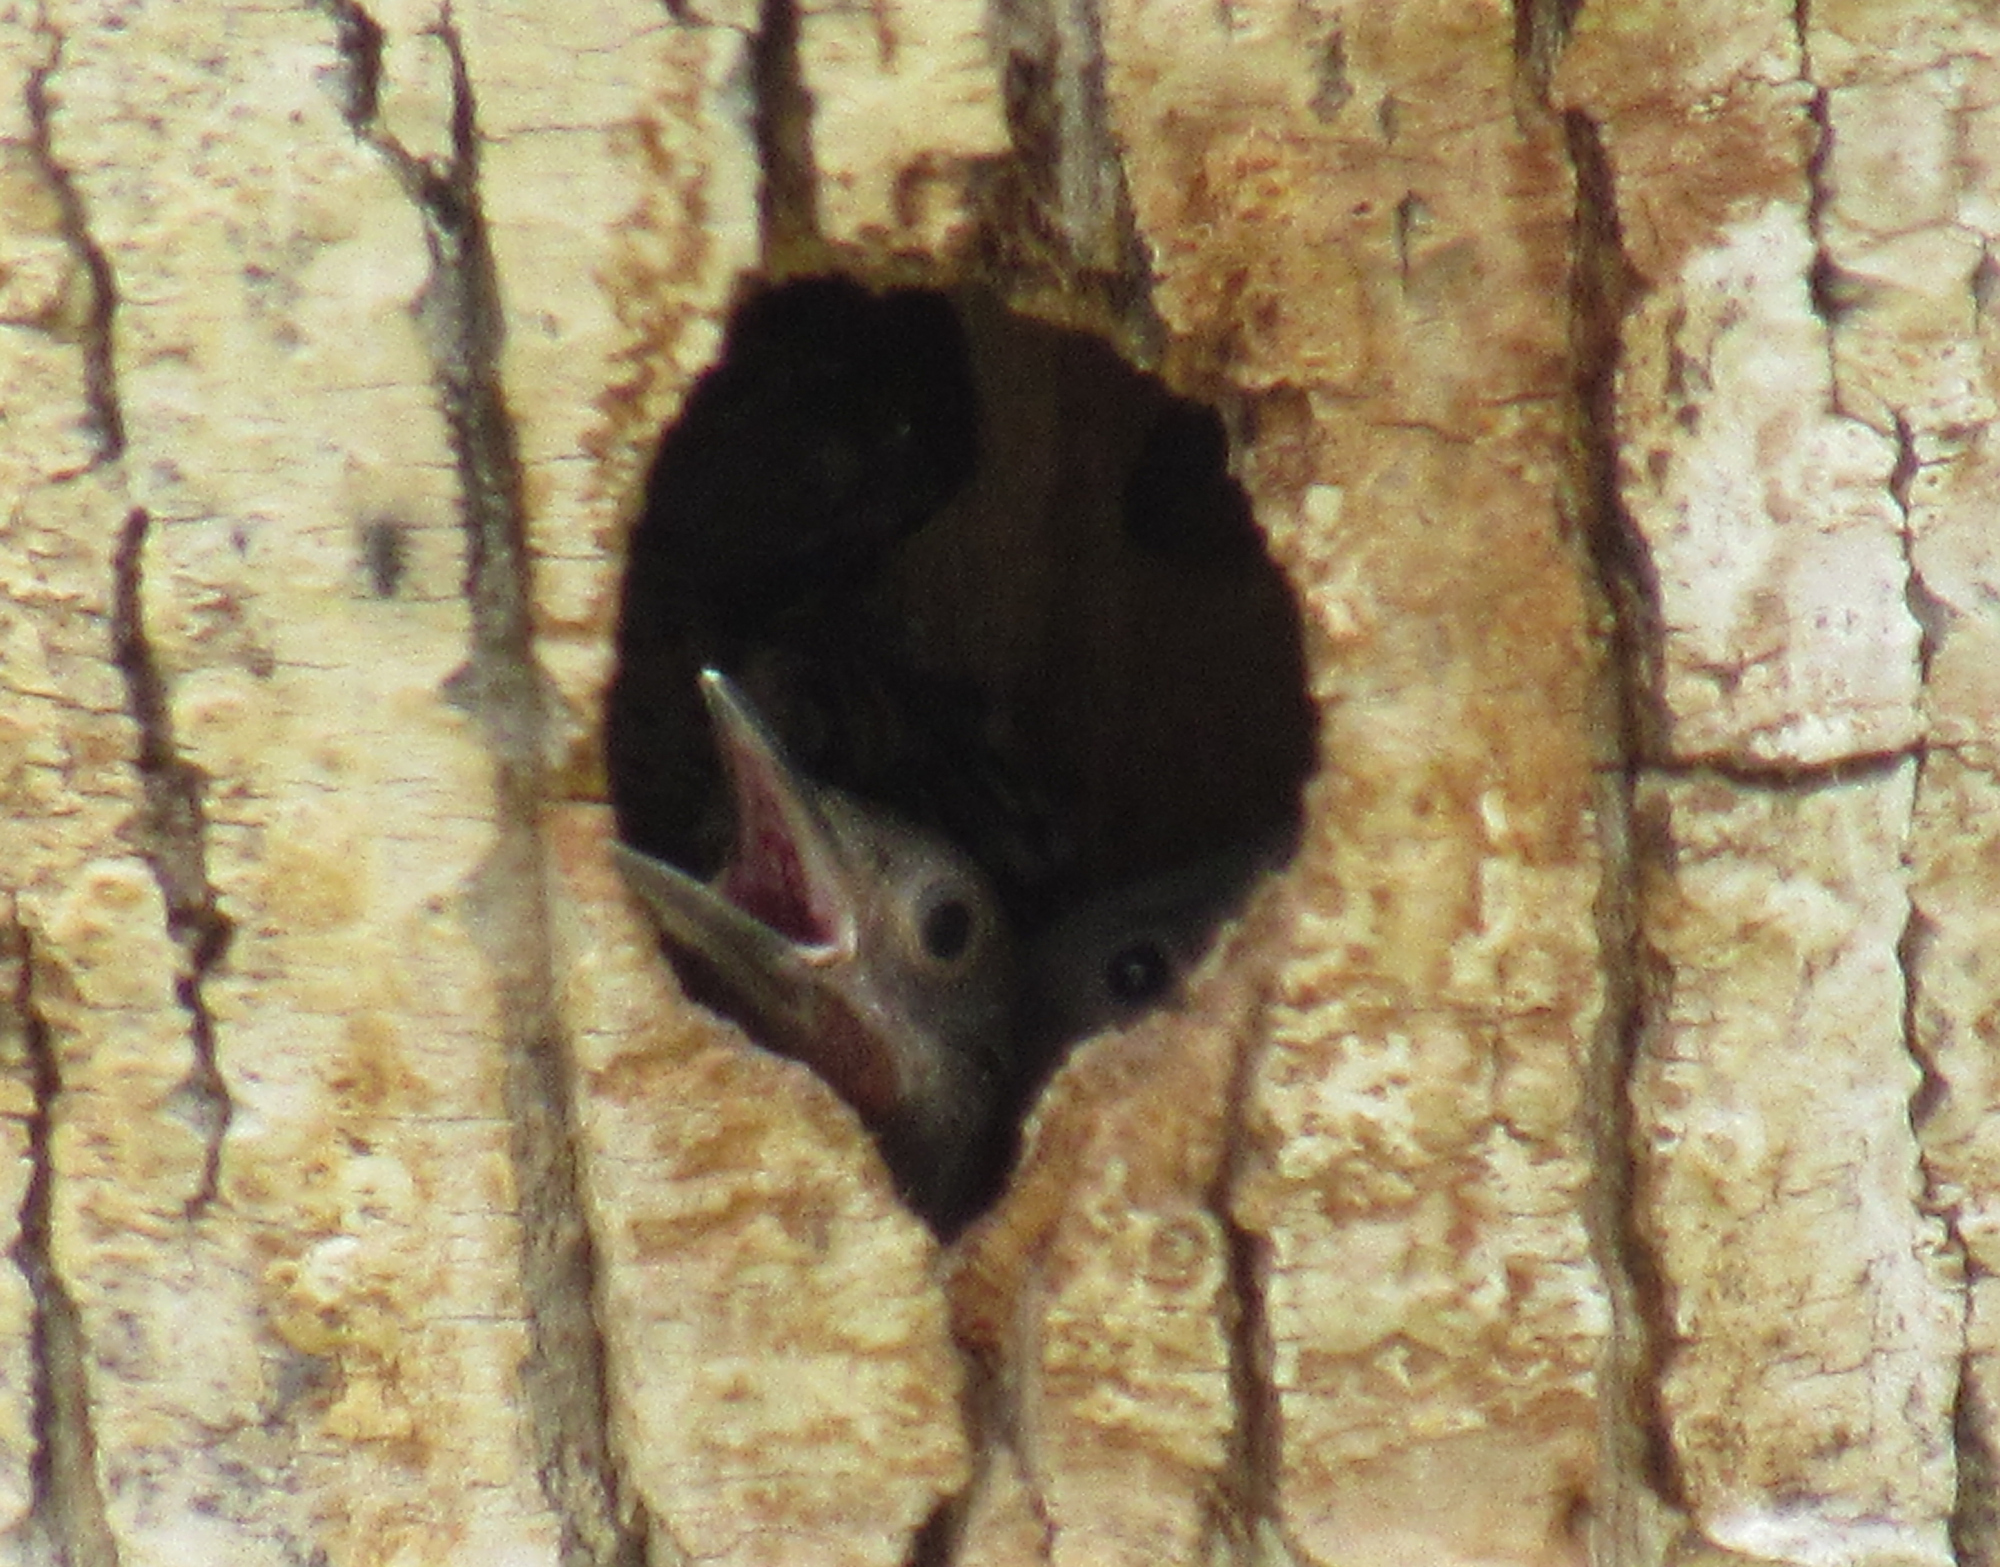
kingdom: Animalia
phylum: Chordata
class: Aves
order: Piciformes
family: Picidae
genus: Colaptes
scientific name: Colaptes auratus
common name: Northern flicker
